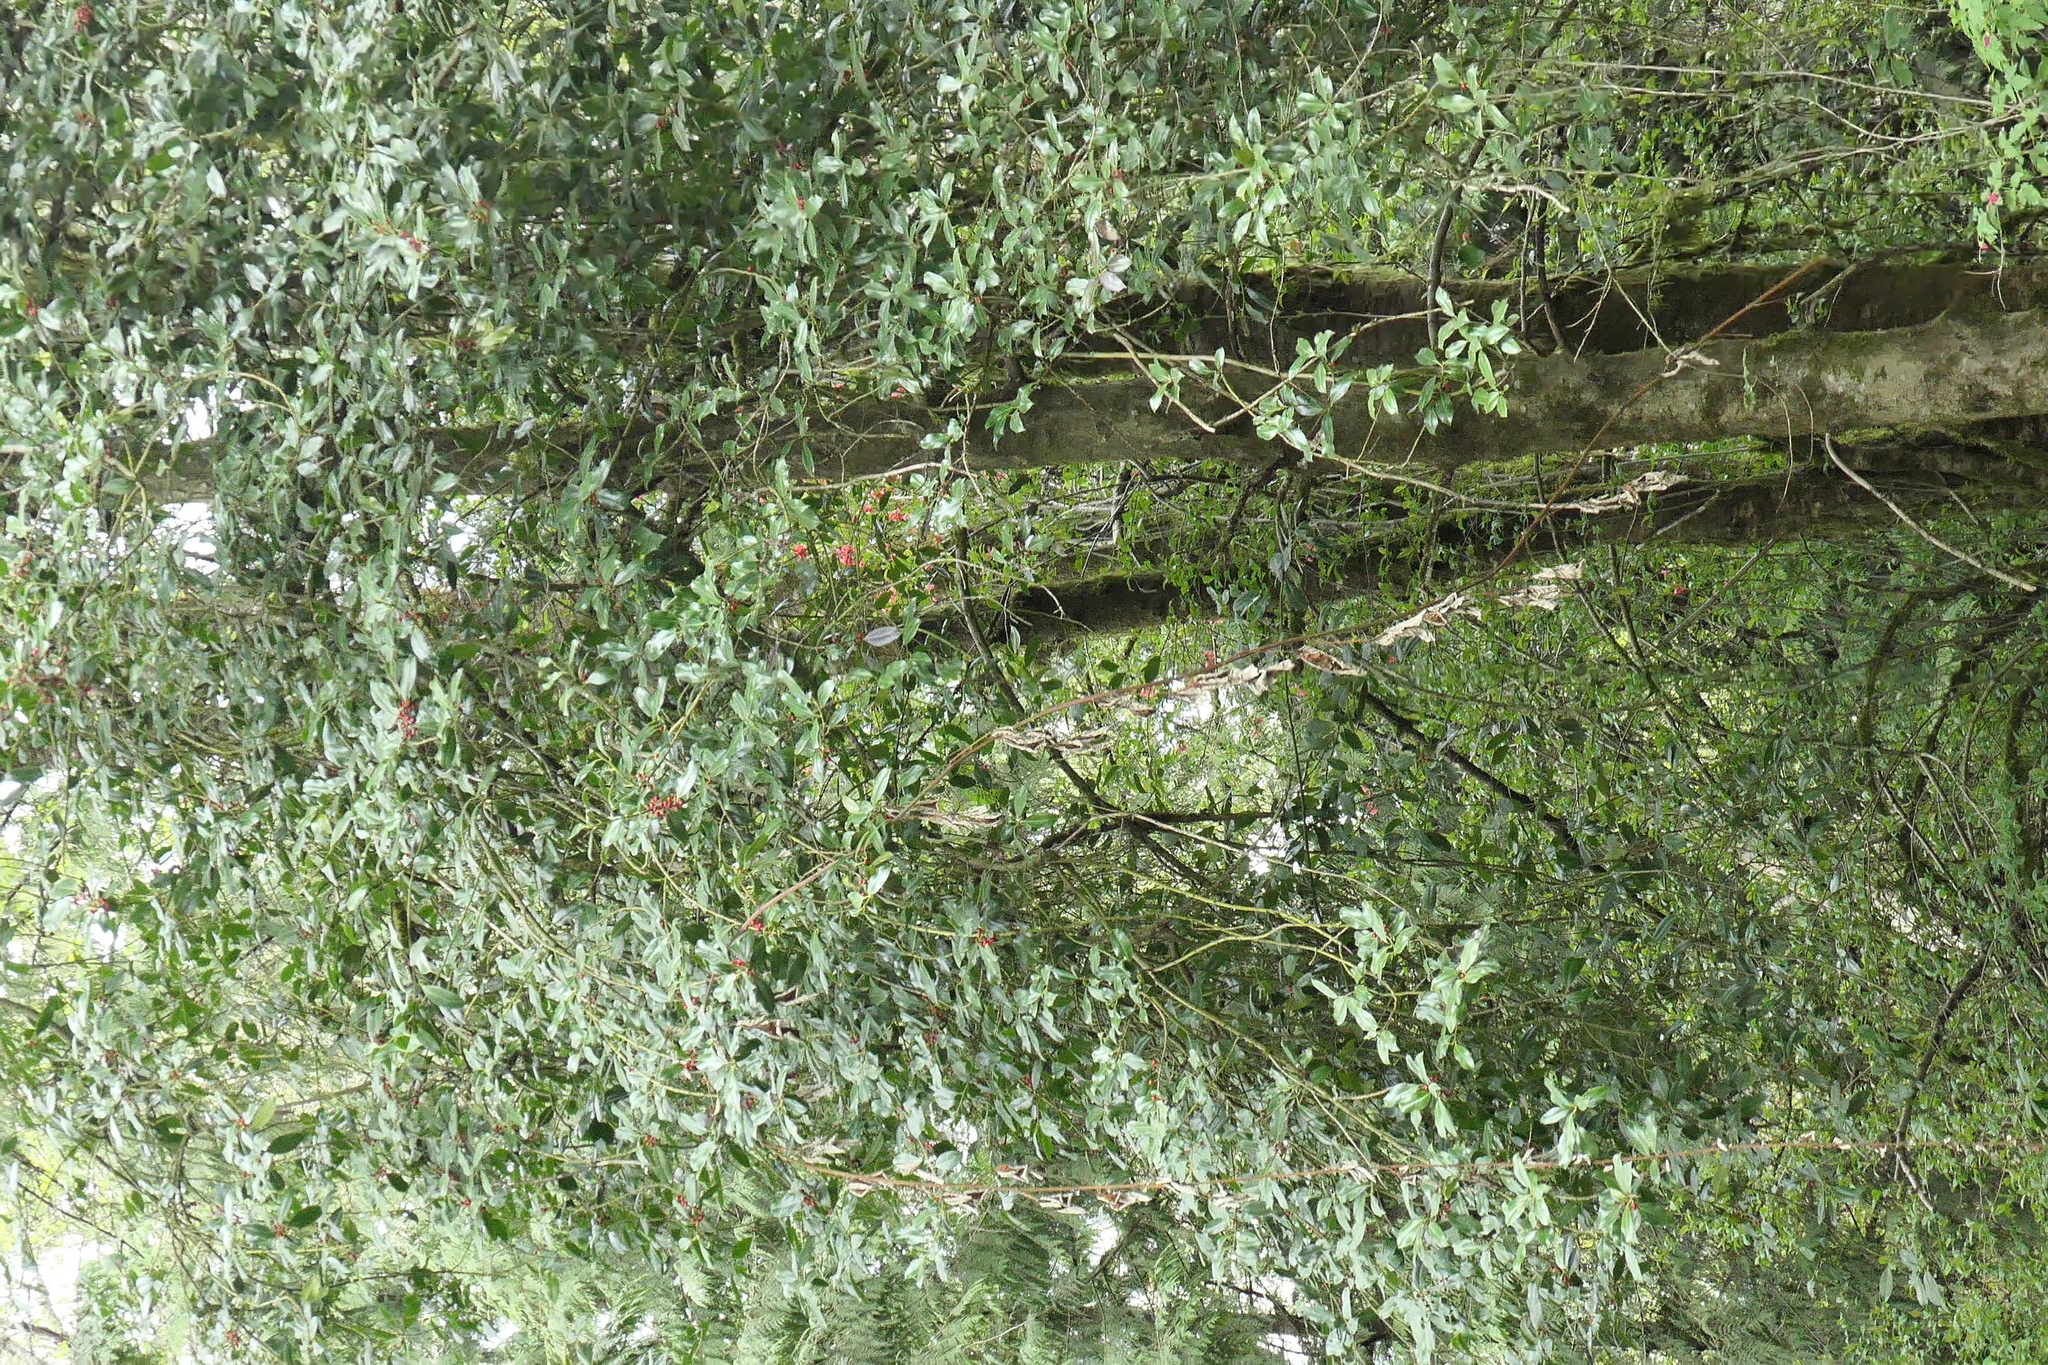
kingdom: Plantae
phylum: Tracheophyta
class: Magnoliopsida
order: Aquifoliales
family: Aquifoliaceae
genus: Ilex
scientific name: Ilex aquifolium
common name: English holly
